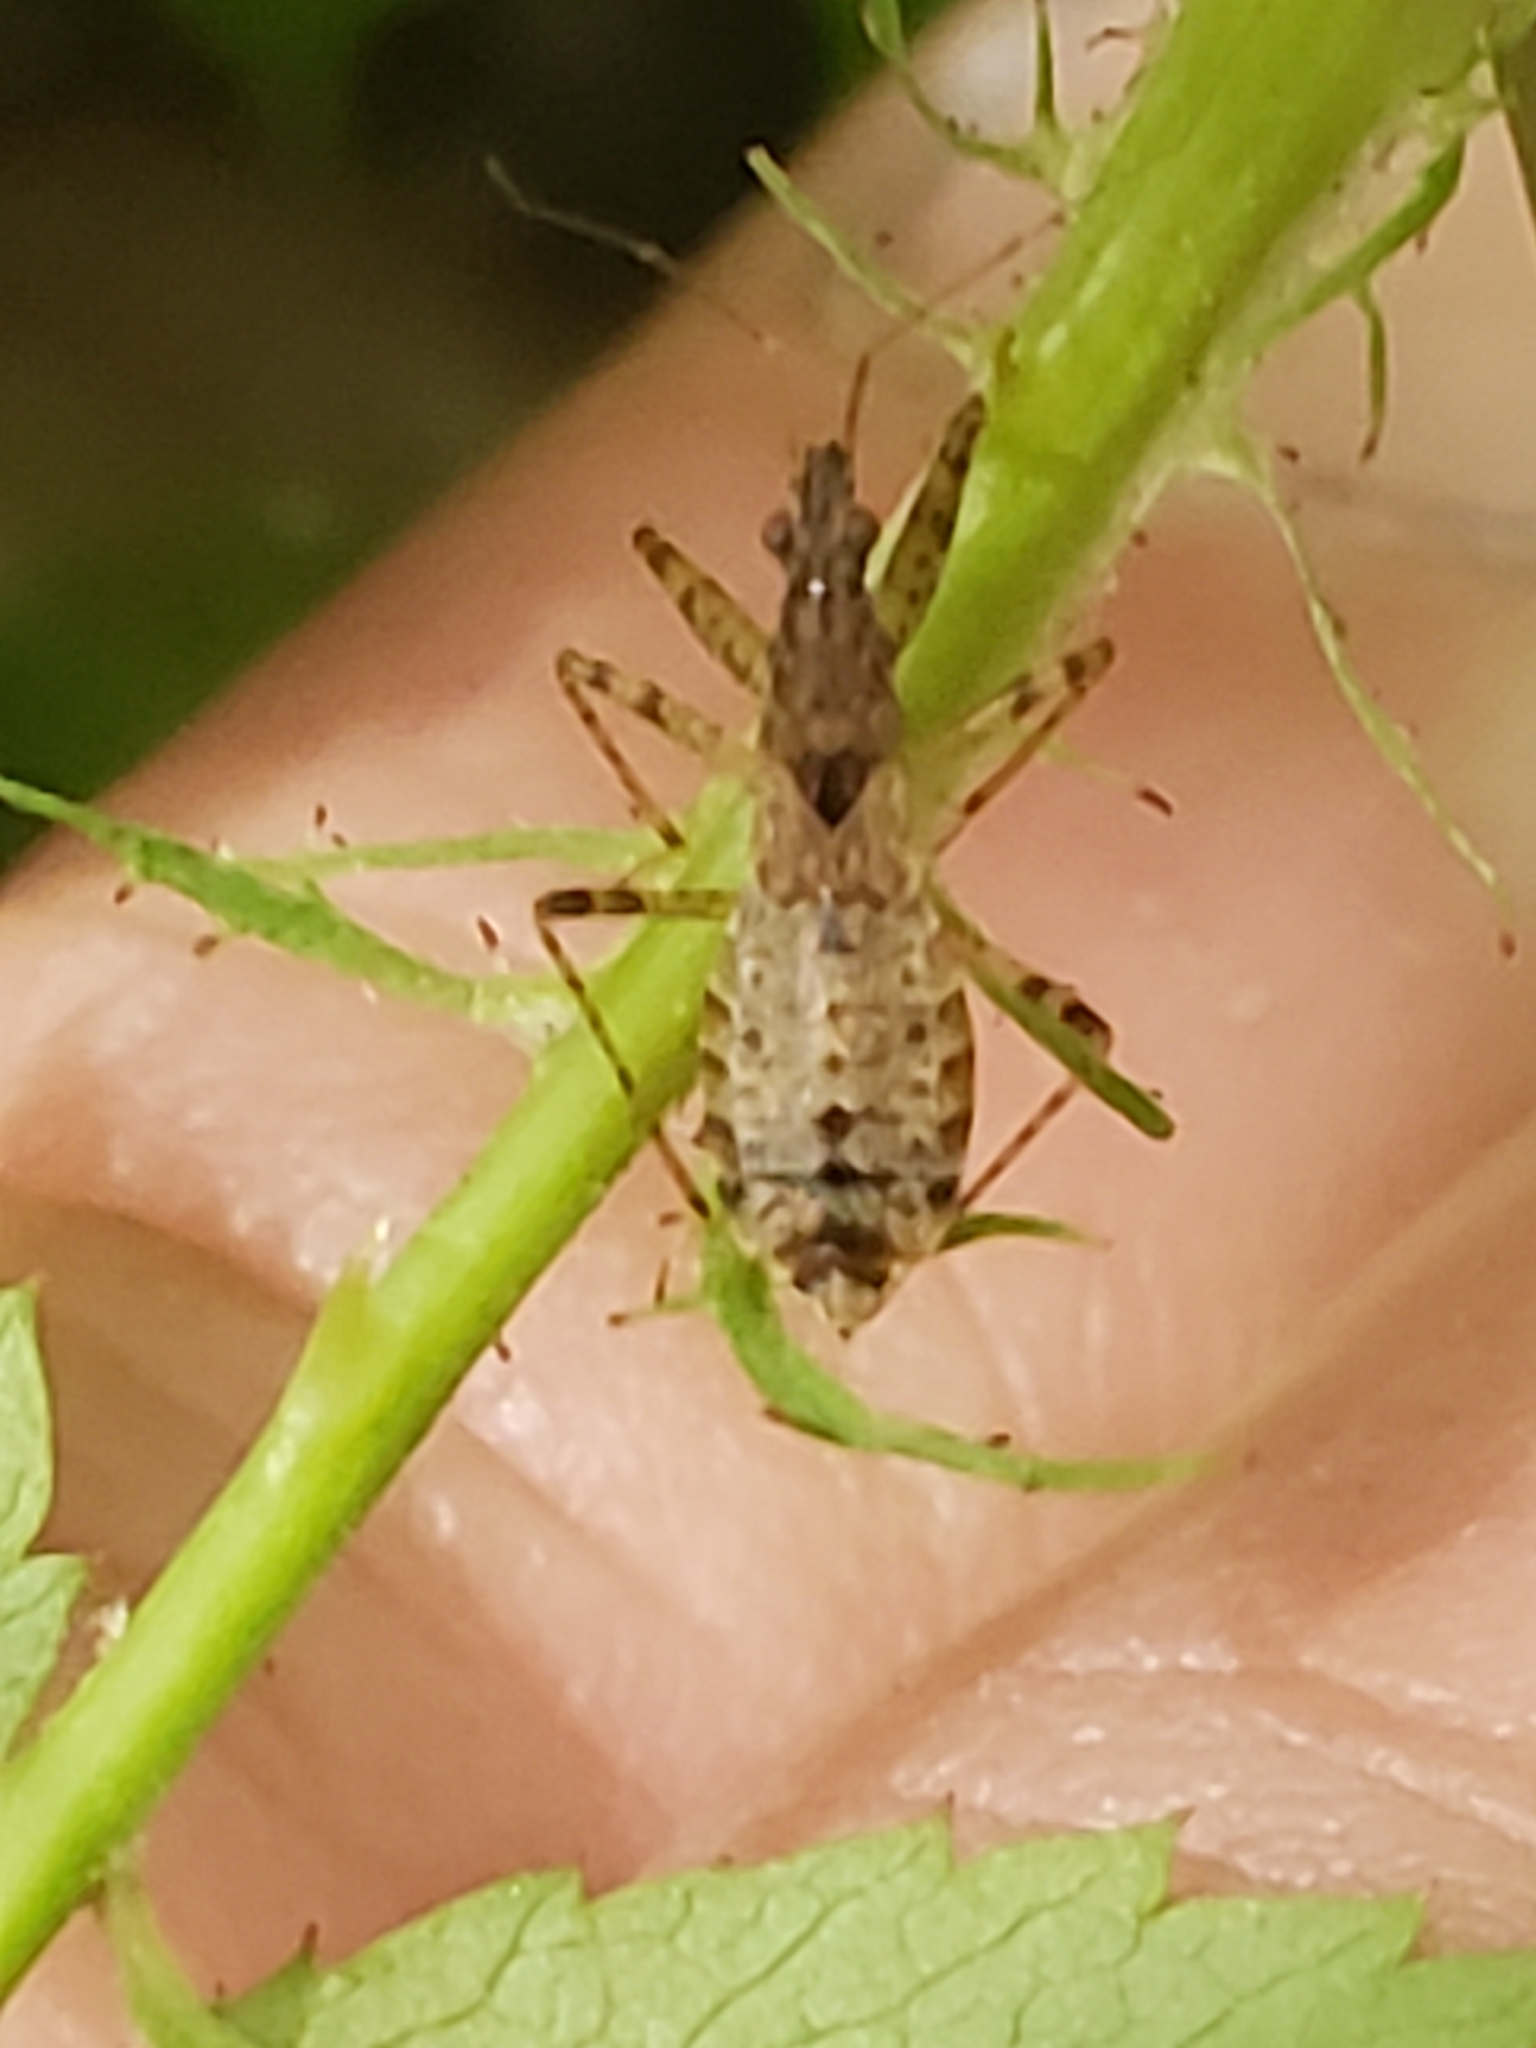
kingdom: Animalia
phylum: Arthropoda
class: Insecta
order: Hemiptera
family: Nabidae
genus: Hoplistoscelis
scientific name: Hoplistoscelis pallescens
